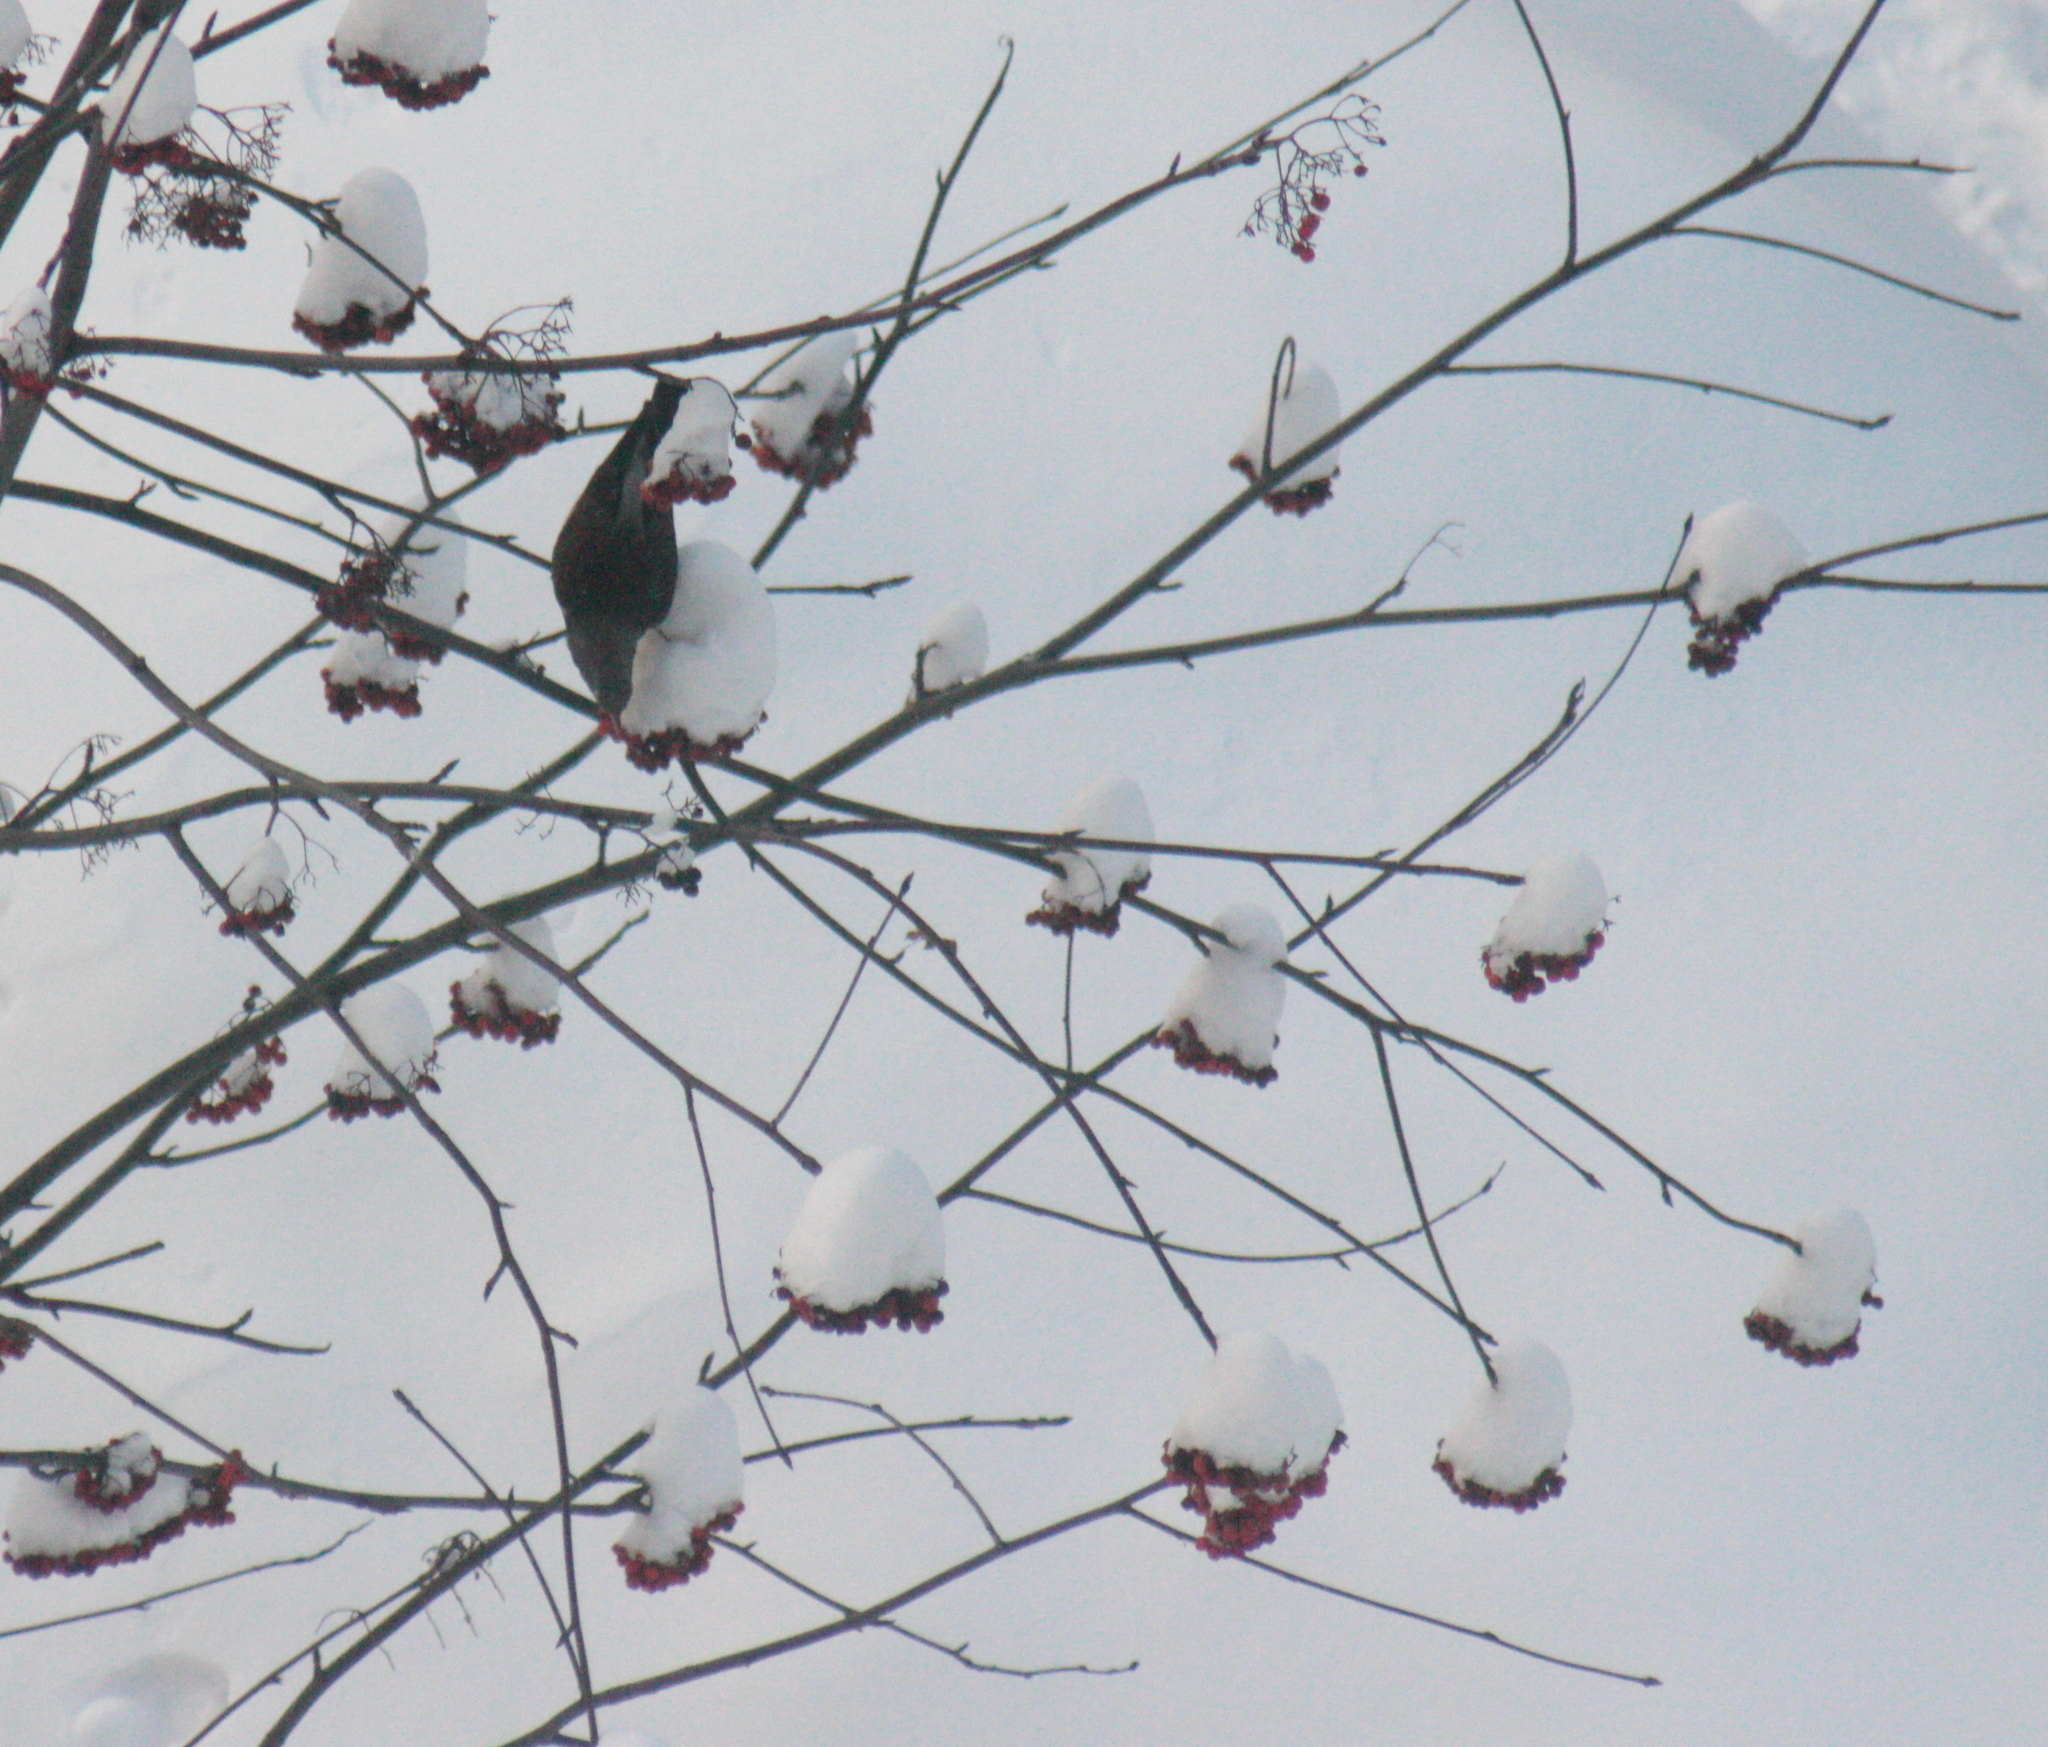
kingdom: Animalia
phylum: Chordata
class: Aves
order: Passeriformes
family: Turdidae
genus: Turdus
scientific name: Turdus pilaris
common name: Fieldfare
